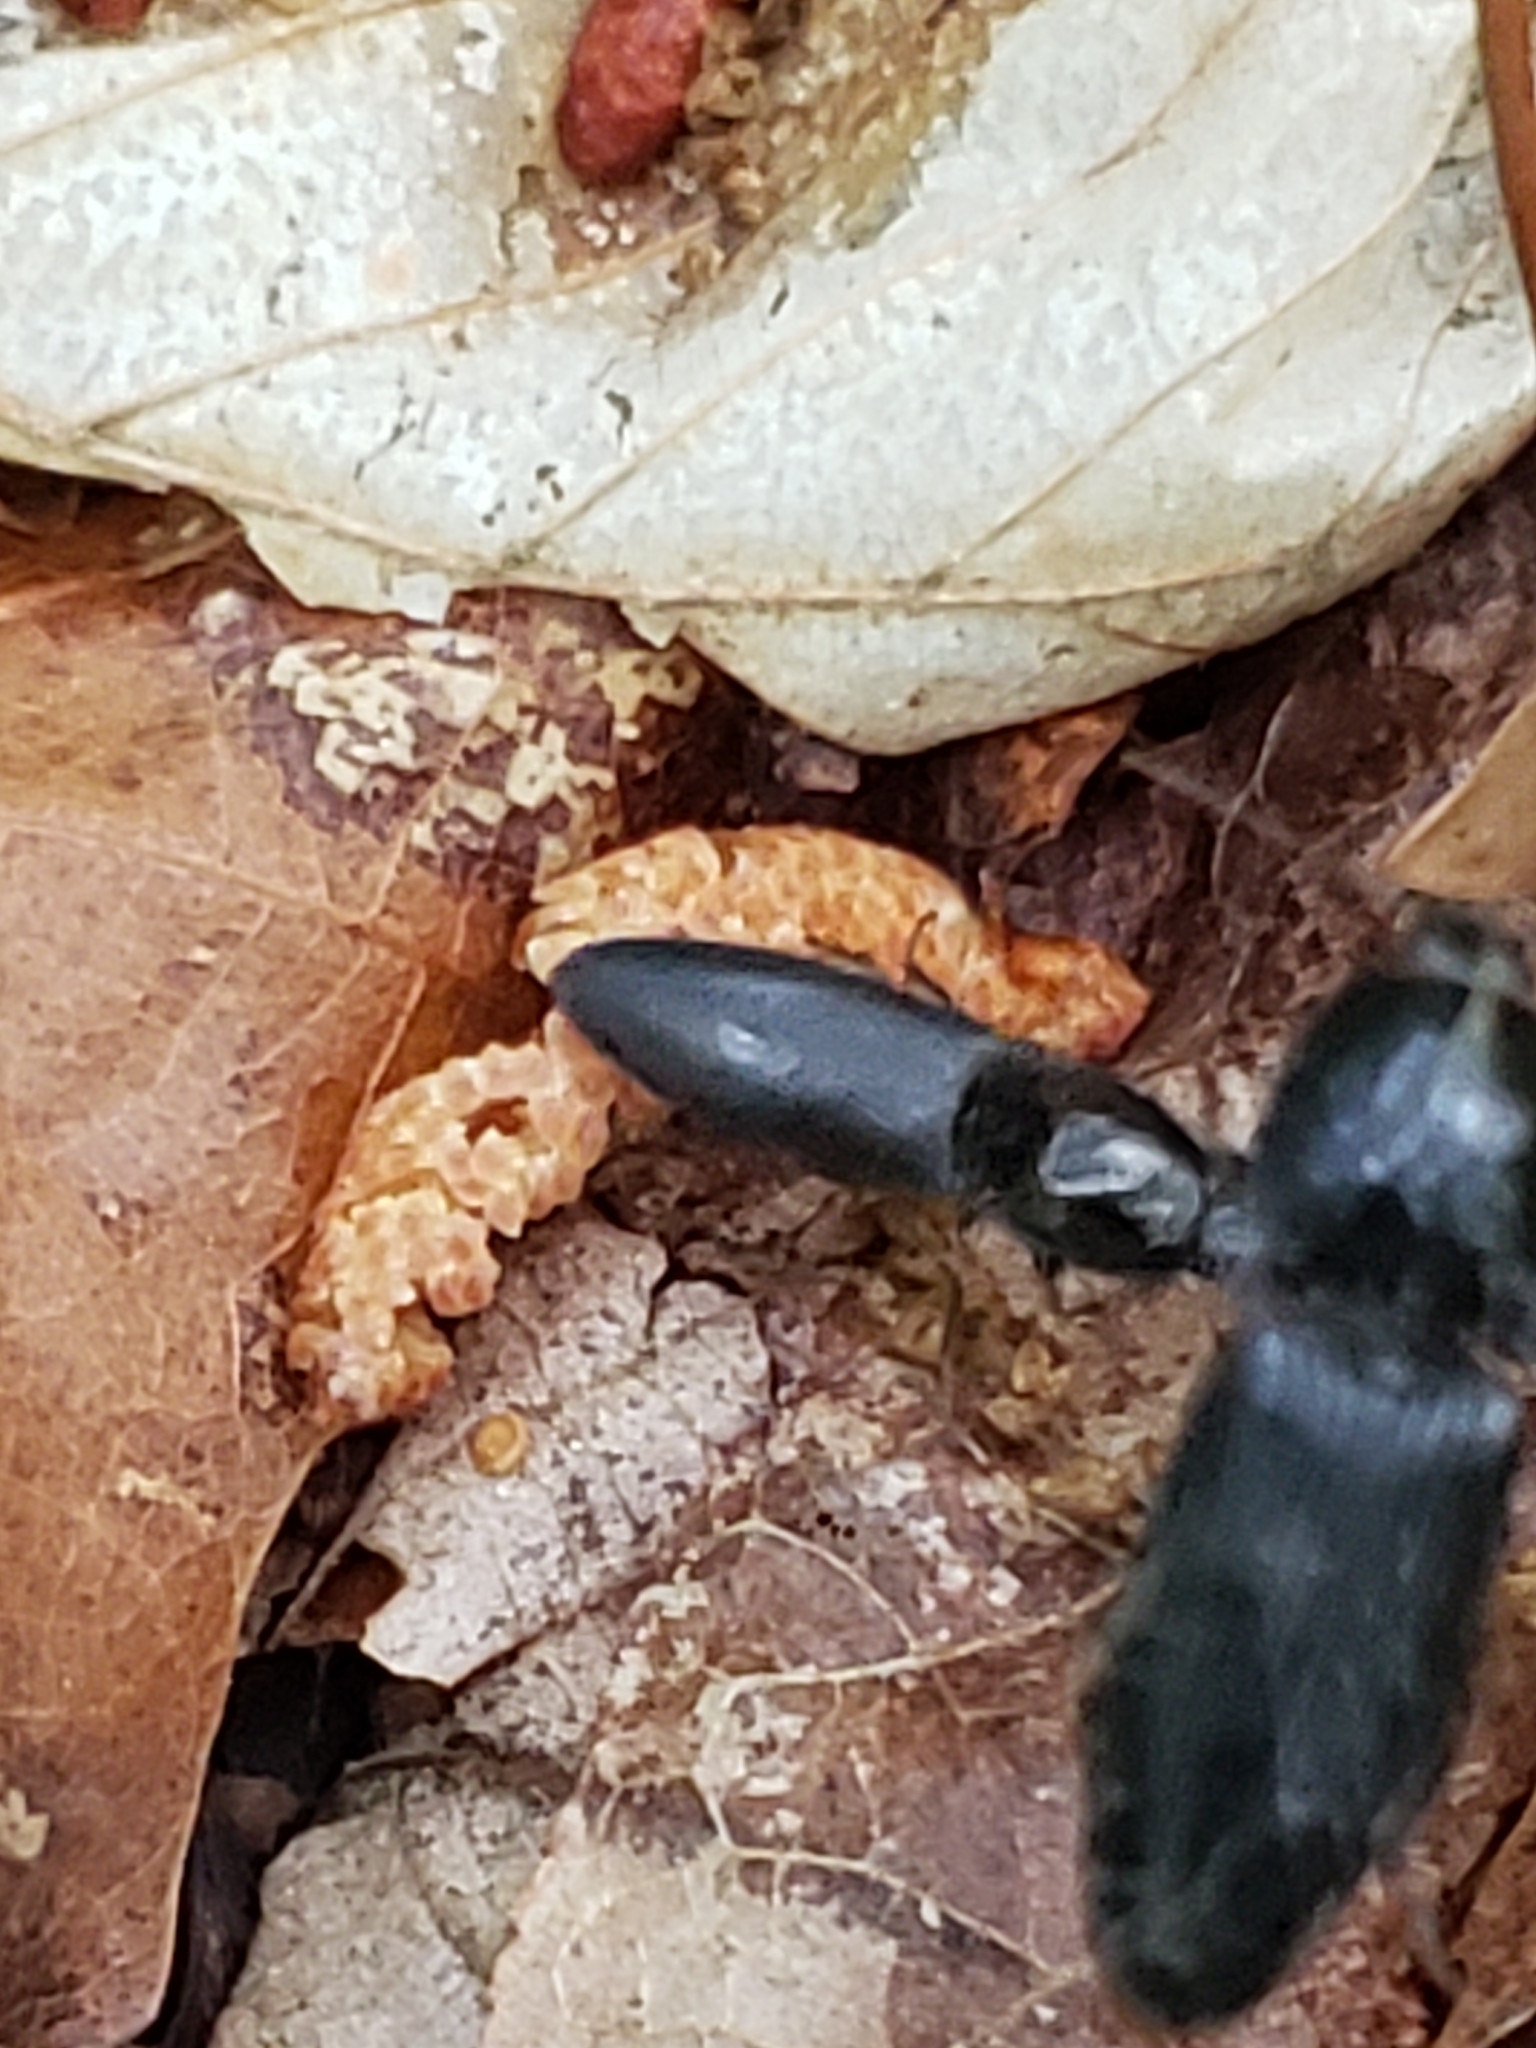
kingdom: Animalia
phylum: Arthropoda
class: Insecta
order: Coleoptera
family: Elateridae
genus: Neopristilophus
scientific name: Neopristilophus
